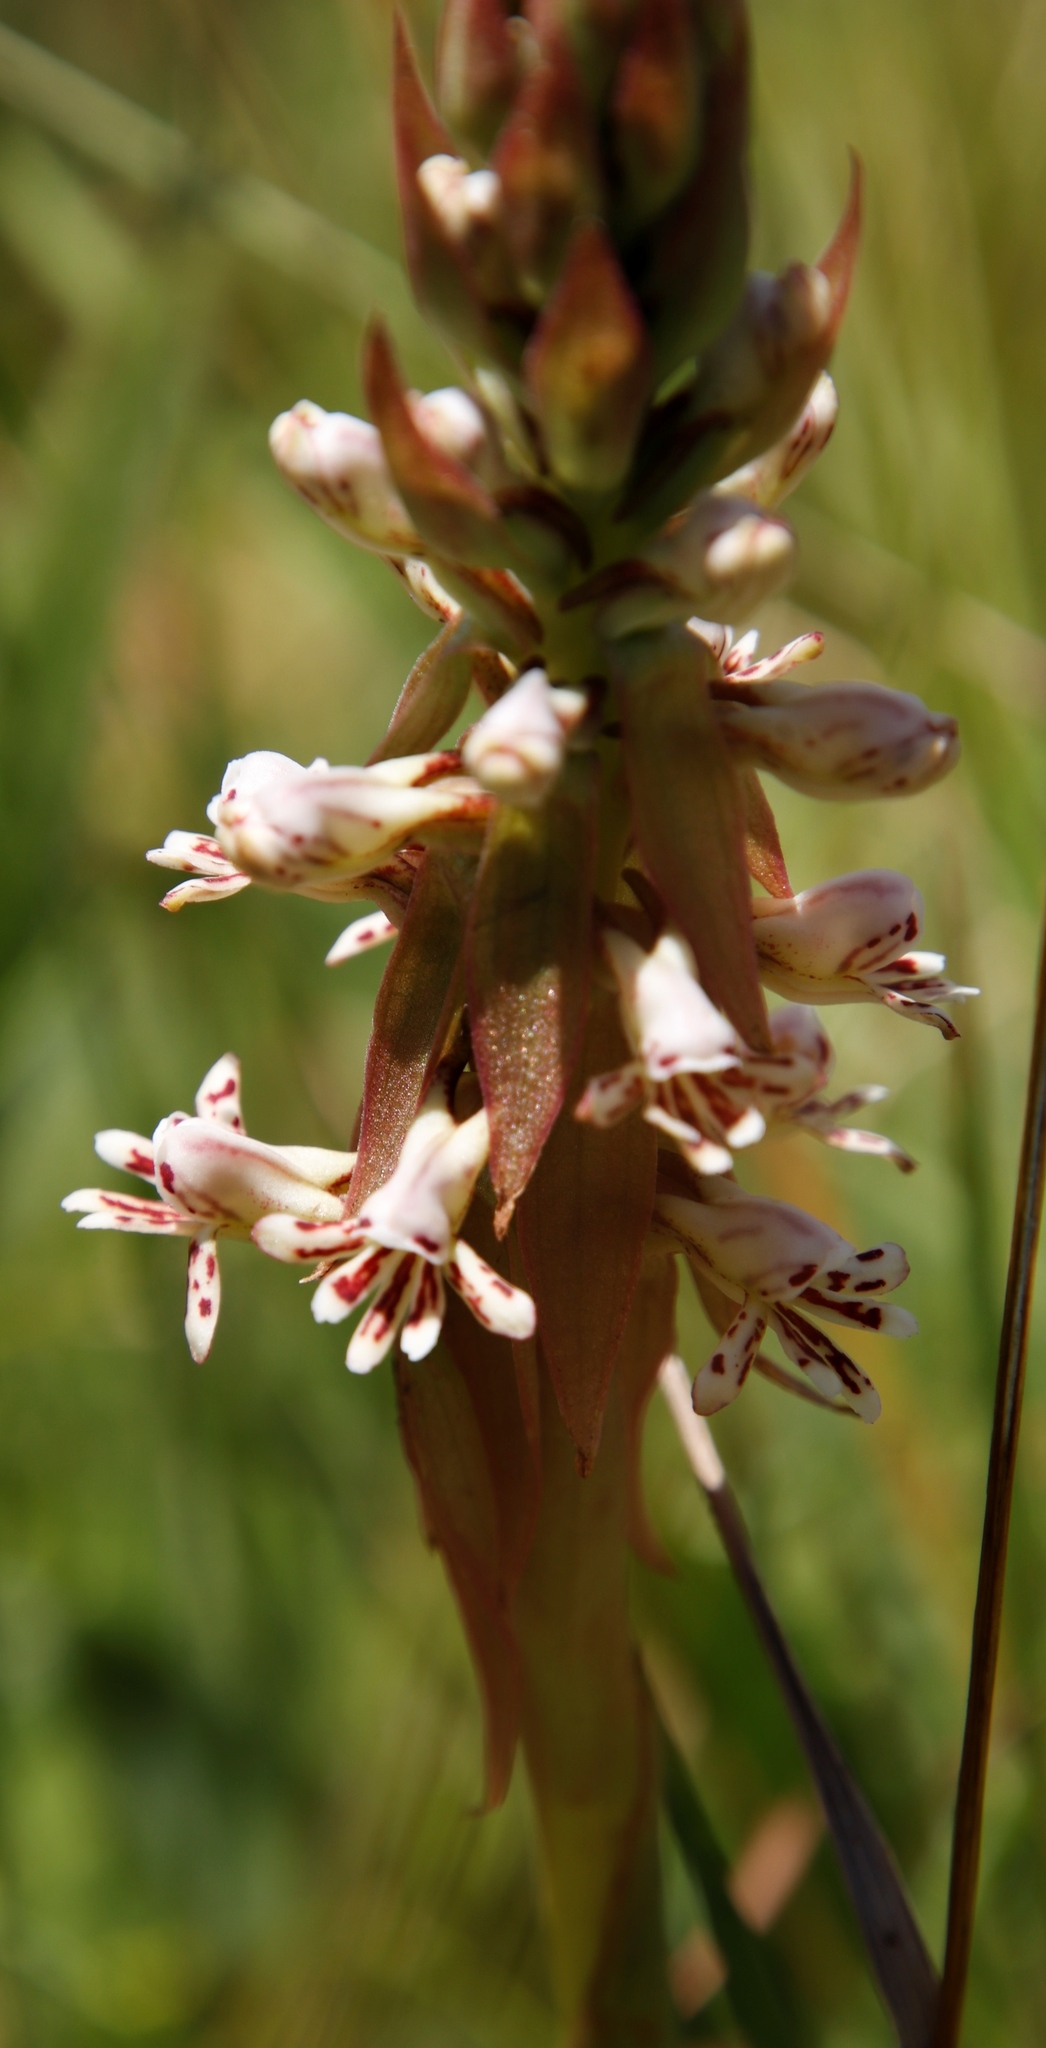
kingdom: Plantae
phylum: Tracheophyta
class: Liliopsida
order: Asparagales
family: Orchidaceae
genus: Satyrium
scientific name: Satyrium cristatum
